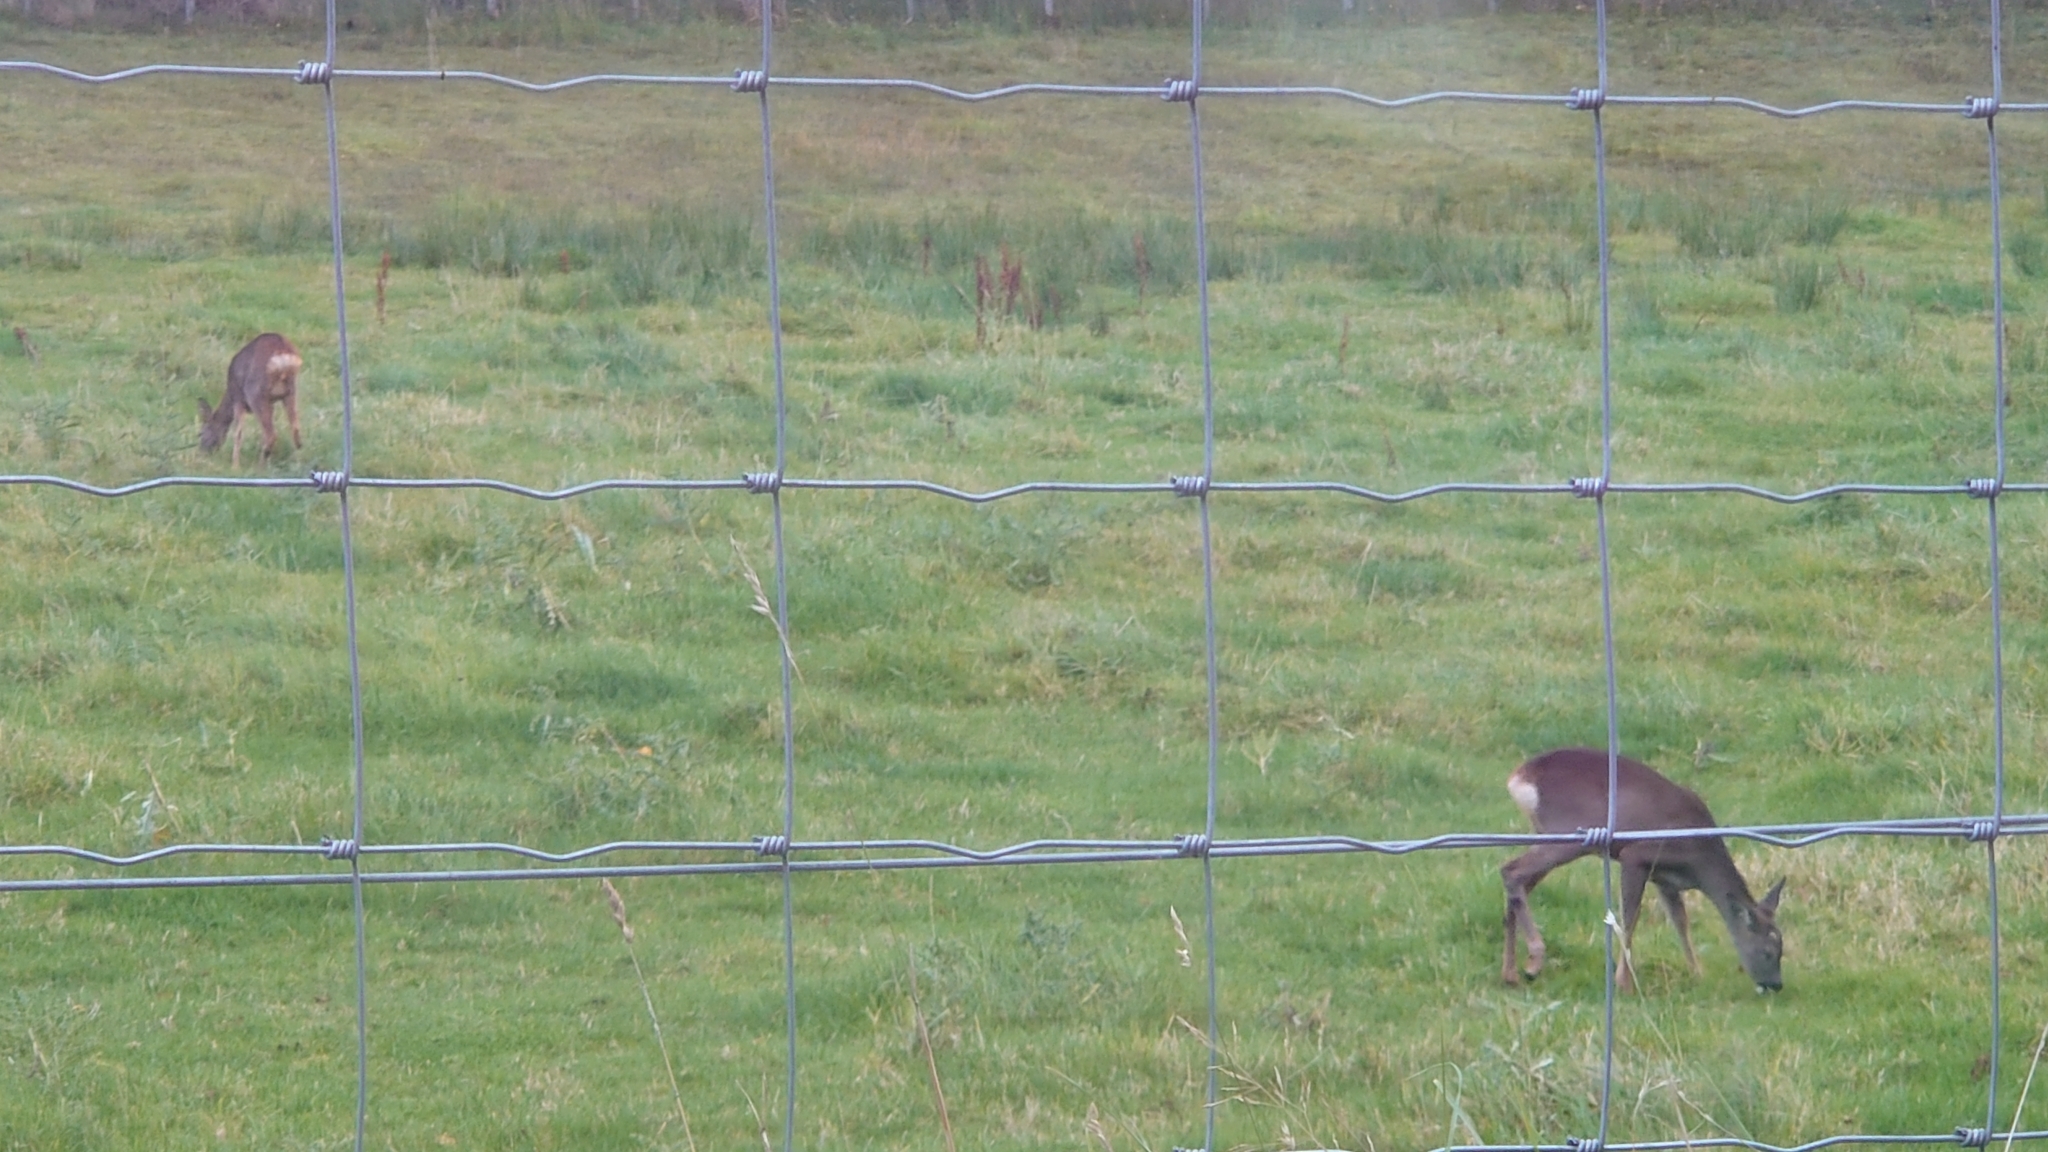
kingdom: Animalia
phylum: Chordata
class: Mammalia
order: Artiodactyla
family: Cervidae
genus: Capreolus
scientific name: Capreolus capreolus
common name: Western roe deer
